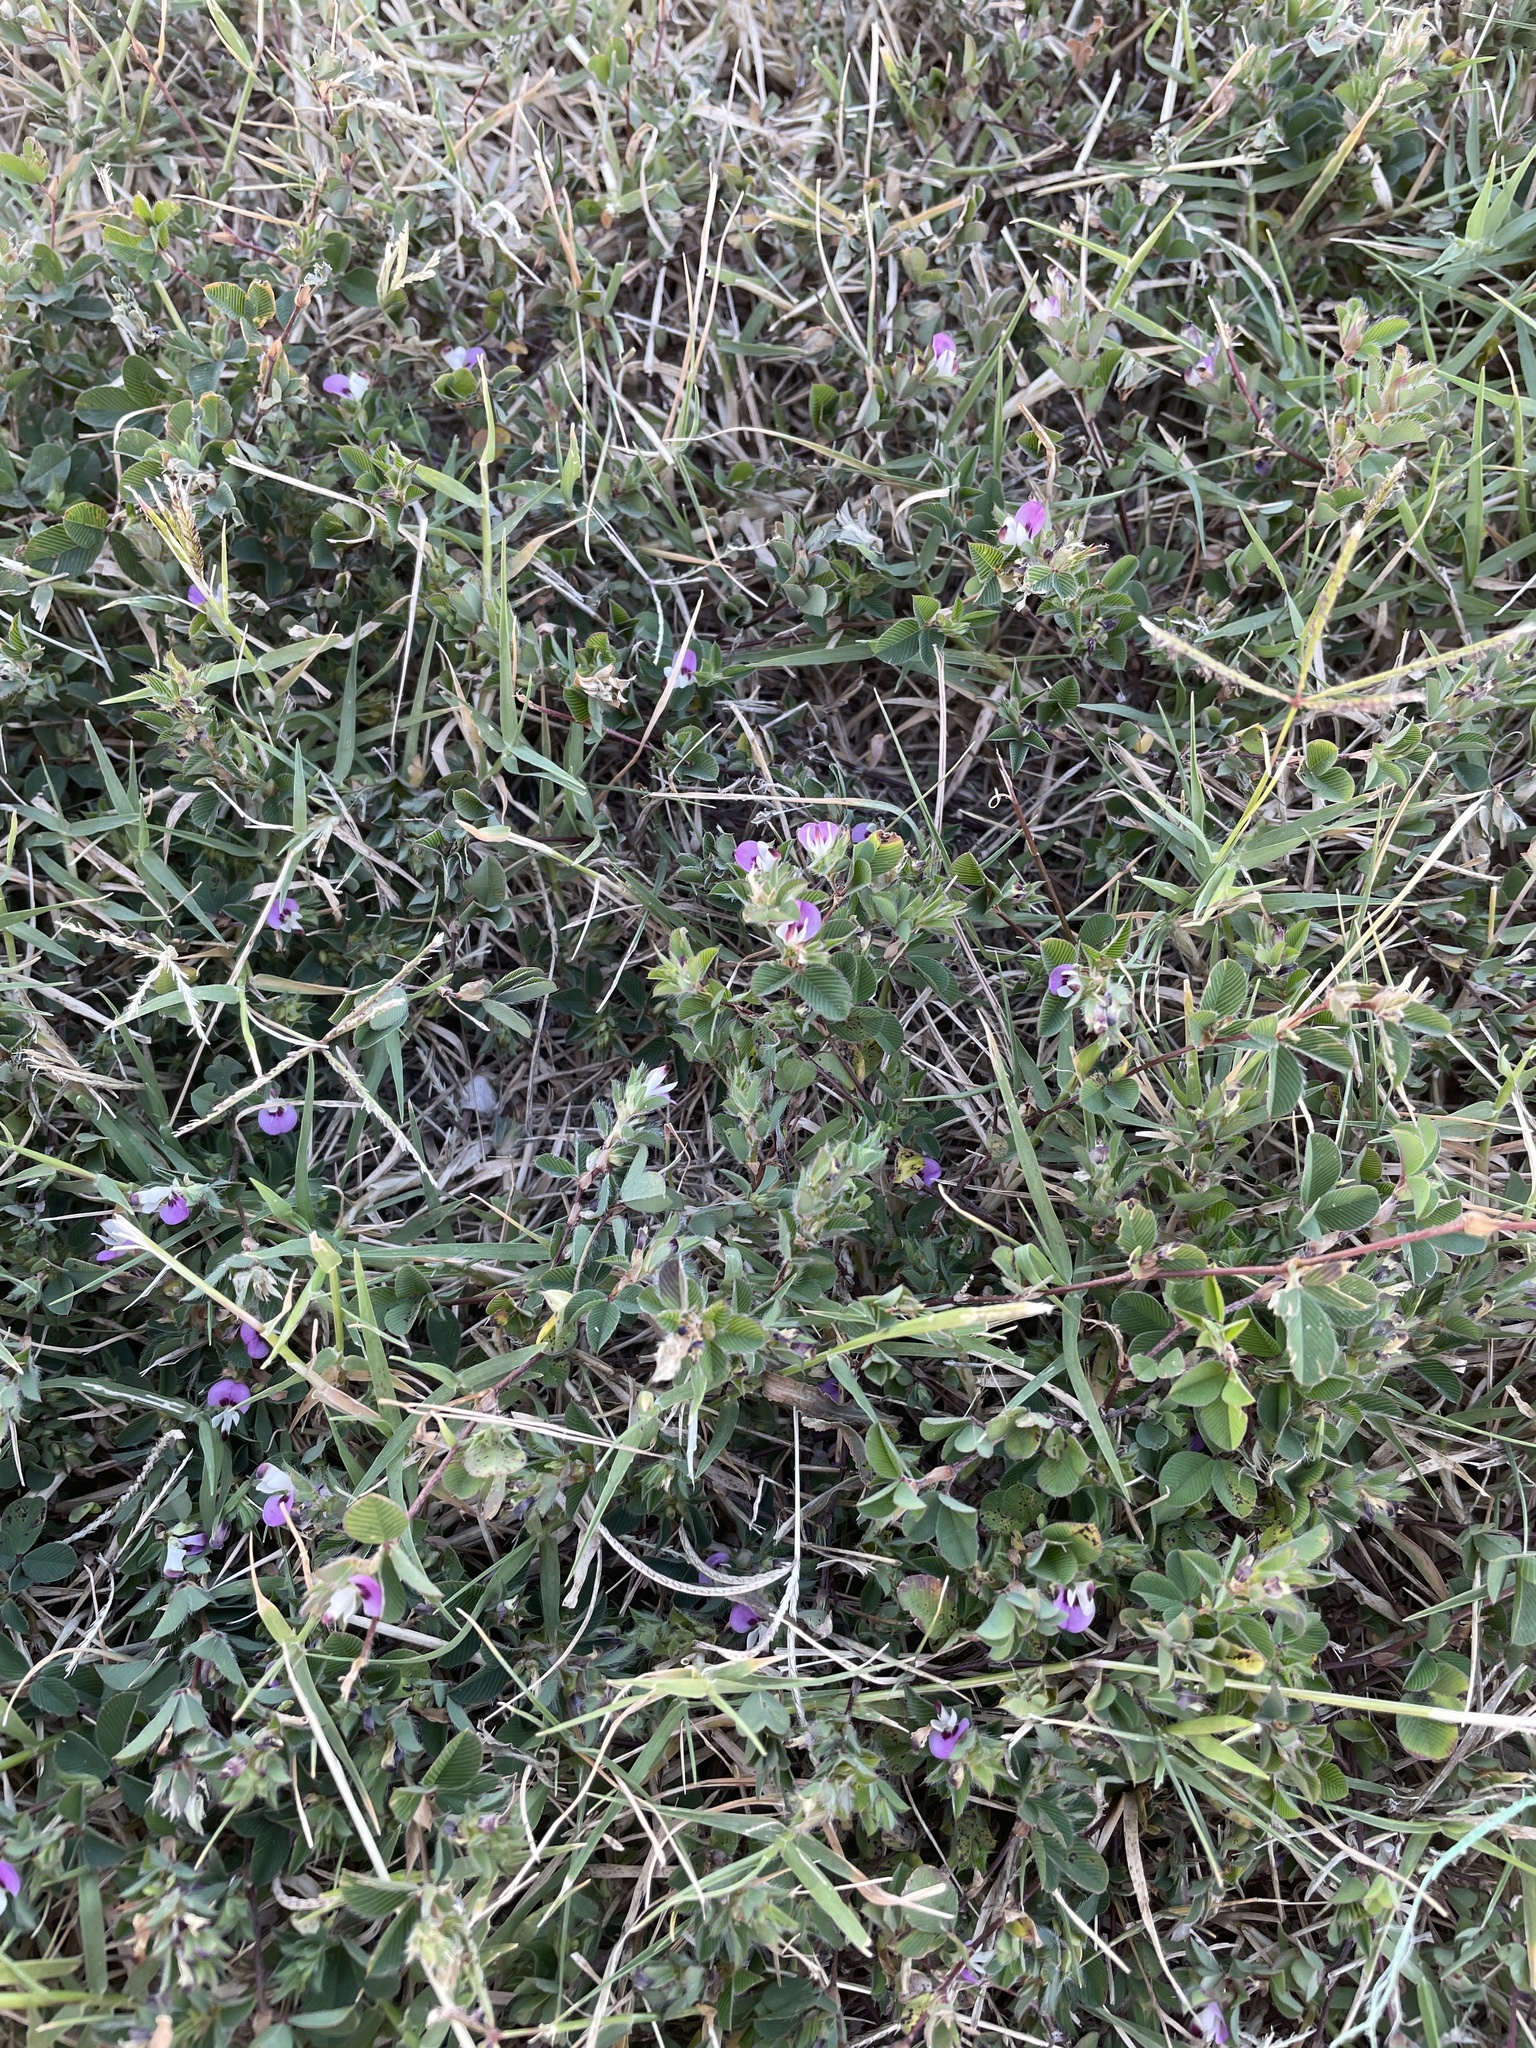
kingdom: Plantae
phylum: Tracheophyta
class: Magnoliopsida
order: Fabales
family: Fabaceae
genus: Kummerowia
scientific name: Kummerowia stipulacea
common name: Korean clover
